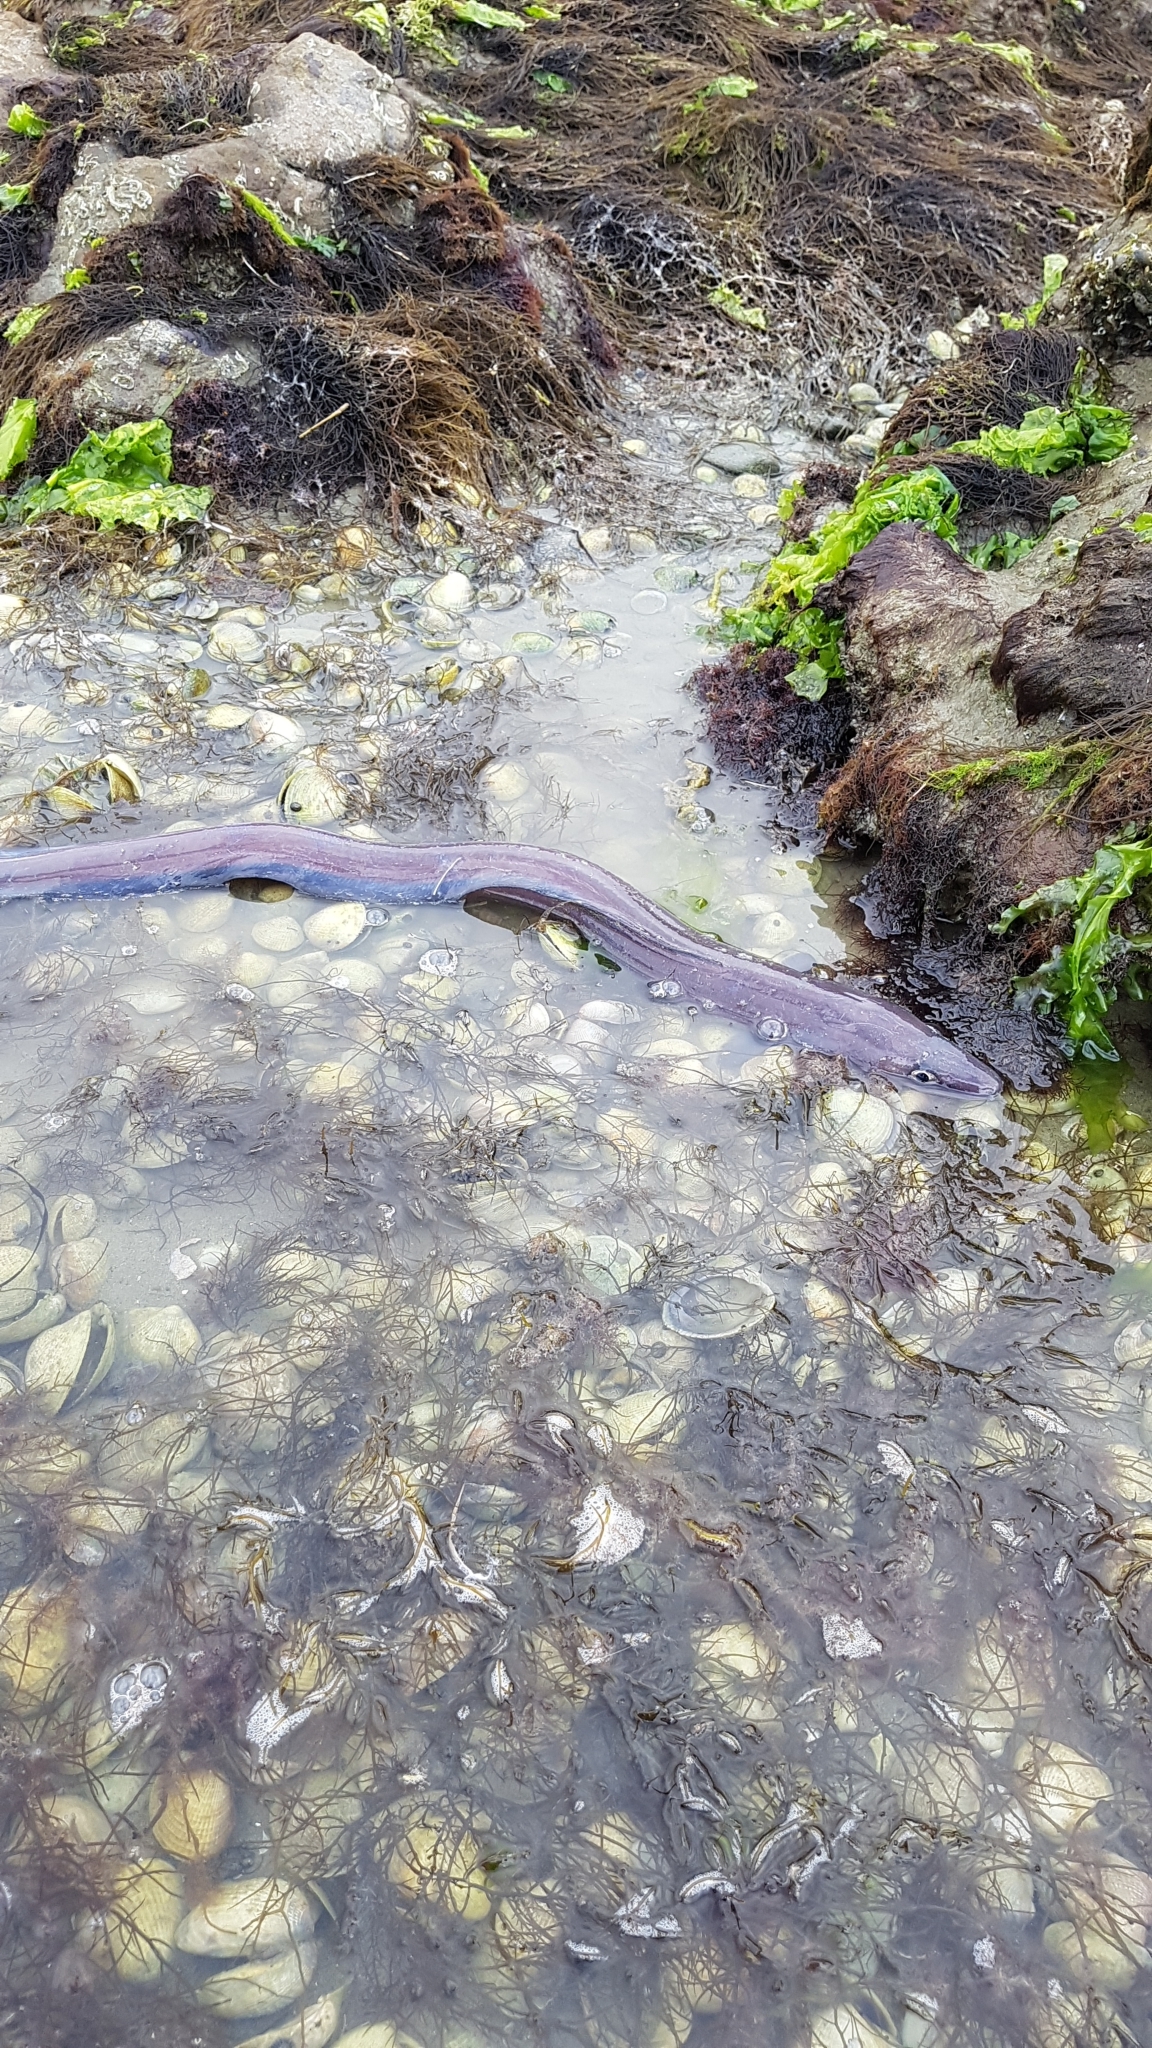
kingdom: Animalia
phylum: Chordata
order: Anguilliformes
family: Congridae
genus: Conger
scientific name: Conger verreauxi
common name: Conger eel
